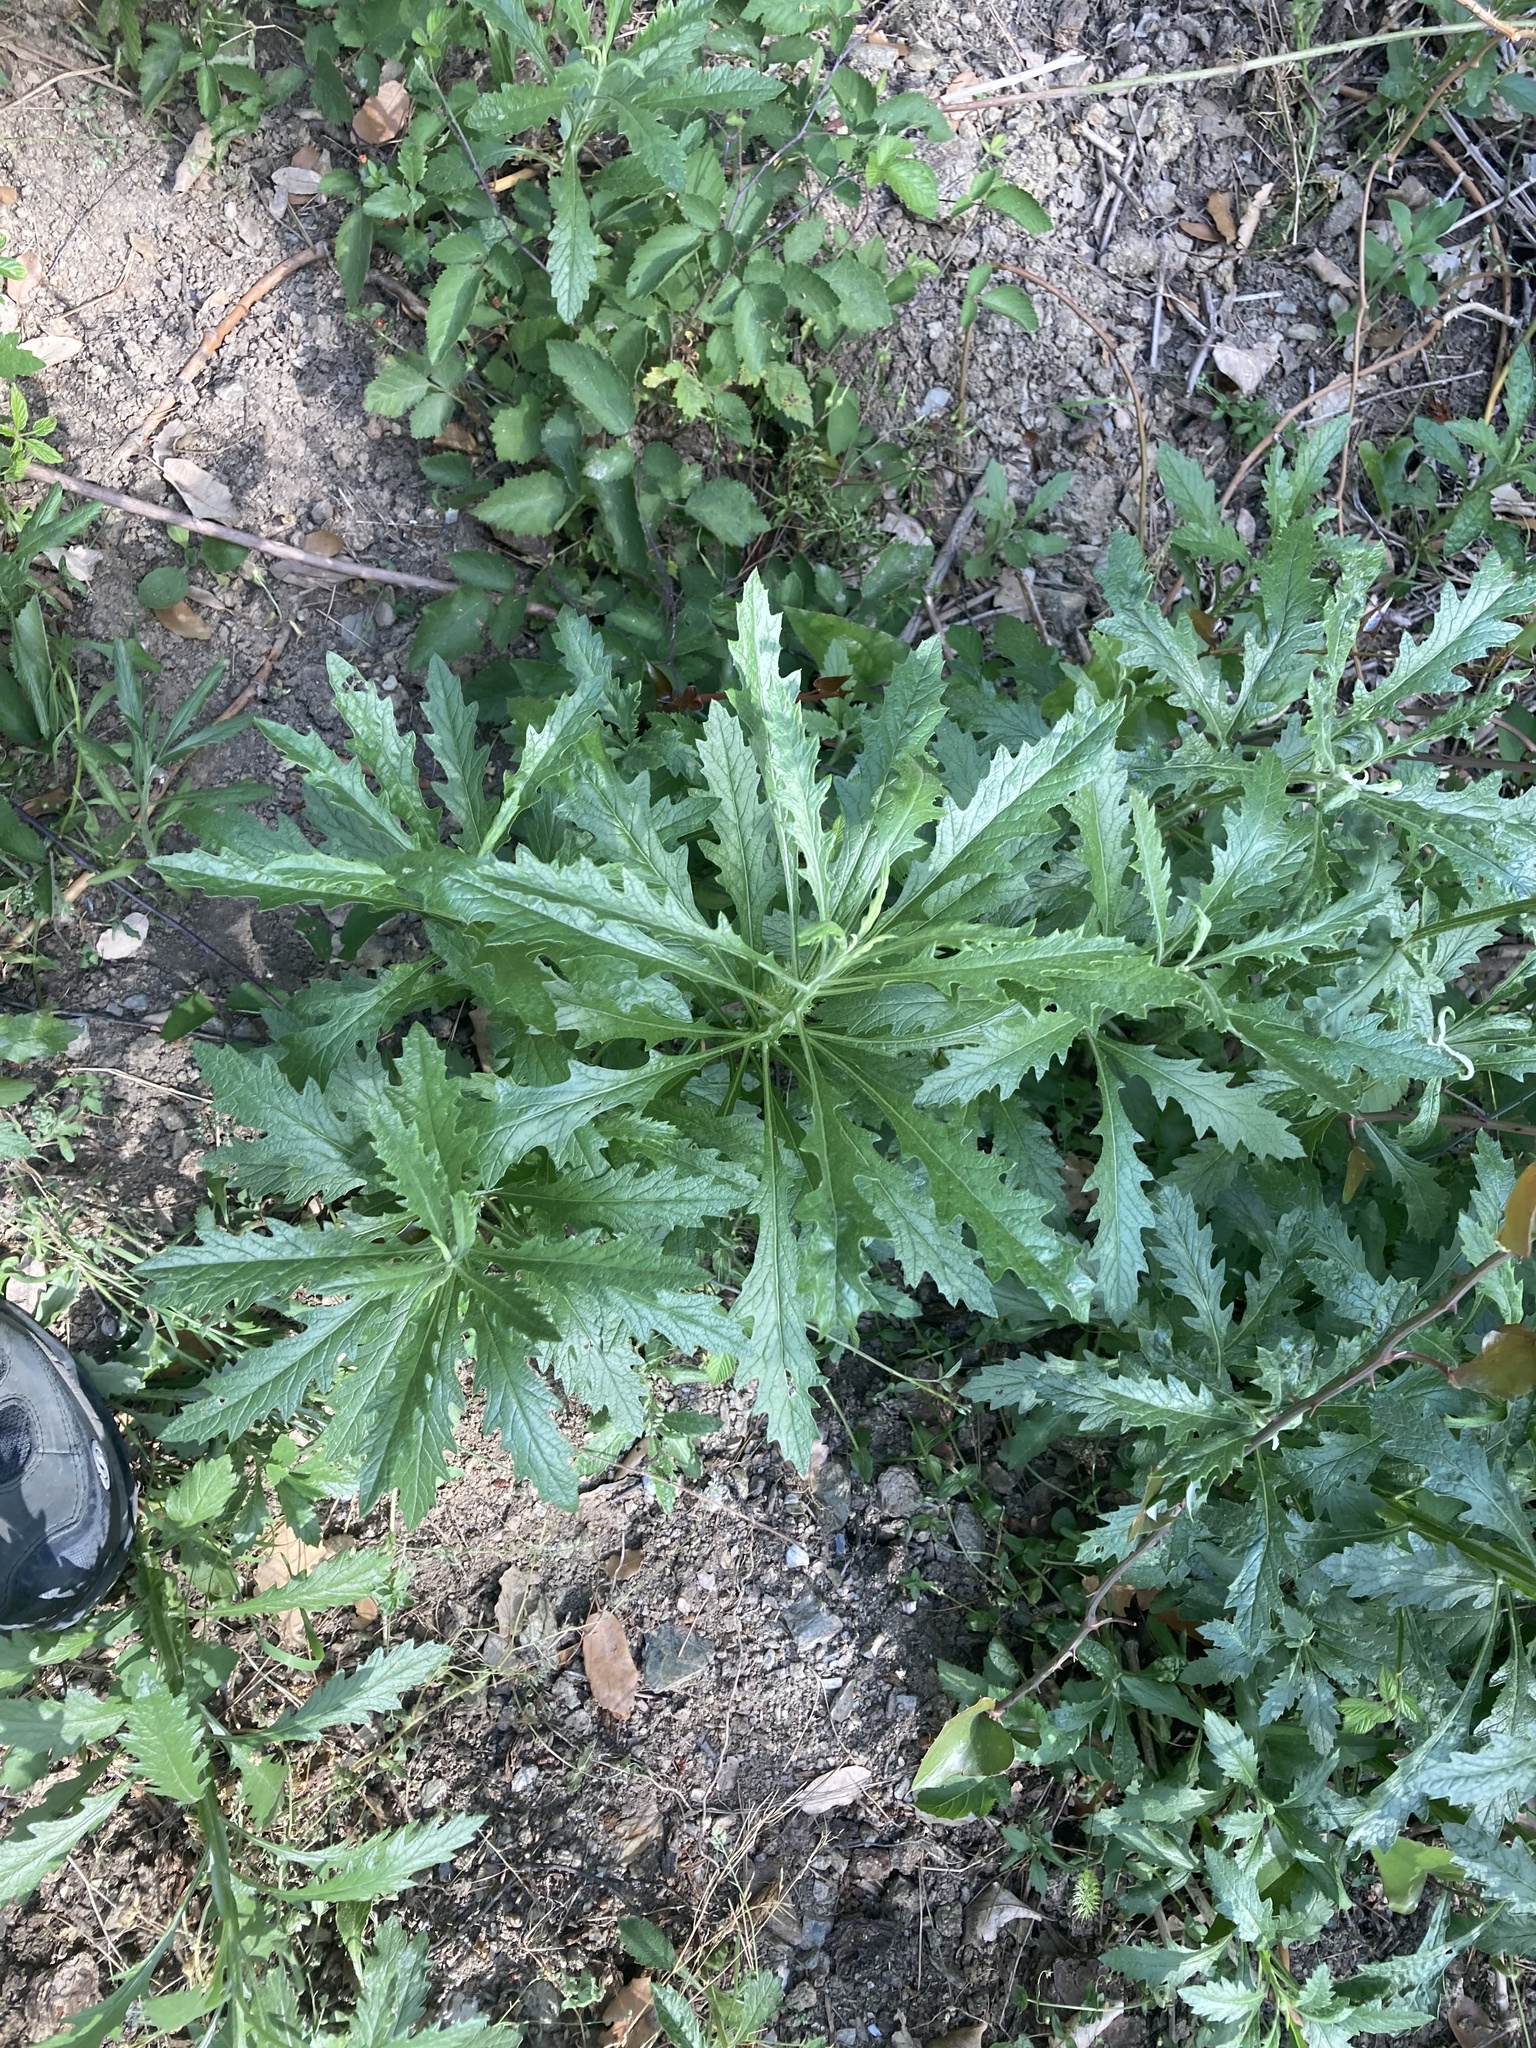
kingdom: Plantae
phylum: Tracheophyta
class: Magnoliopsida
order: Asterales
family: Asteraceae
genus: Senecio
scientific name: Senecio pterophorus
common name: Shoddy ragwort
